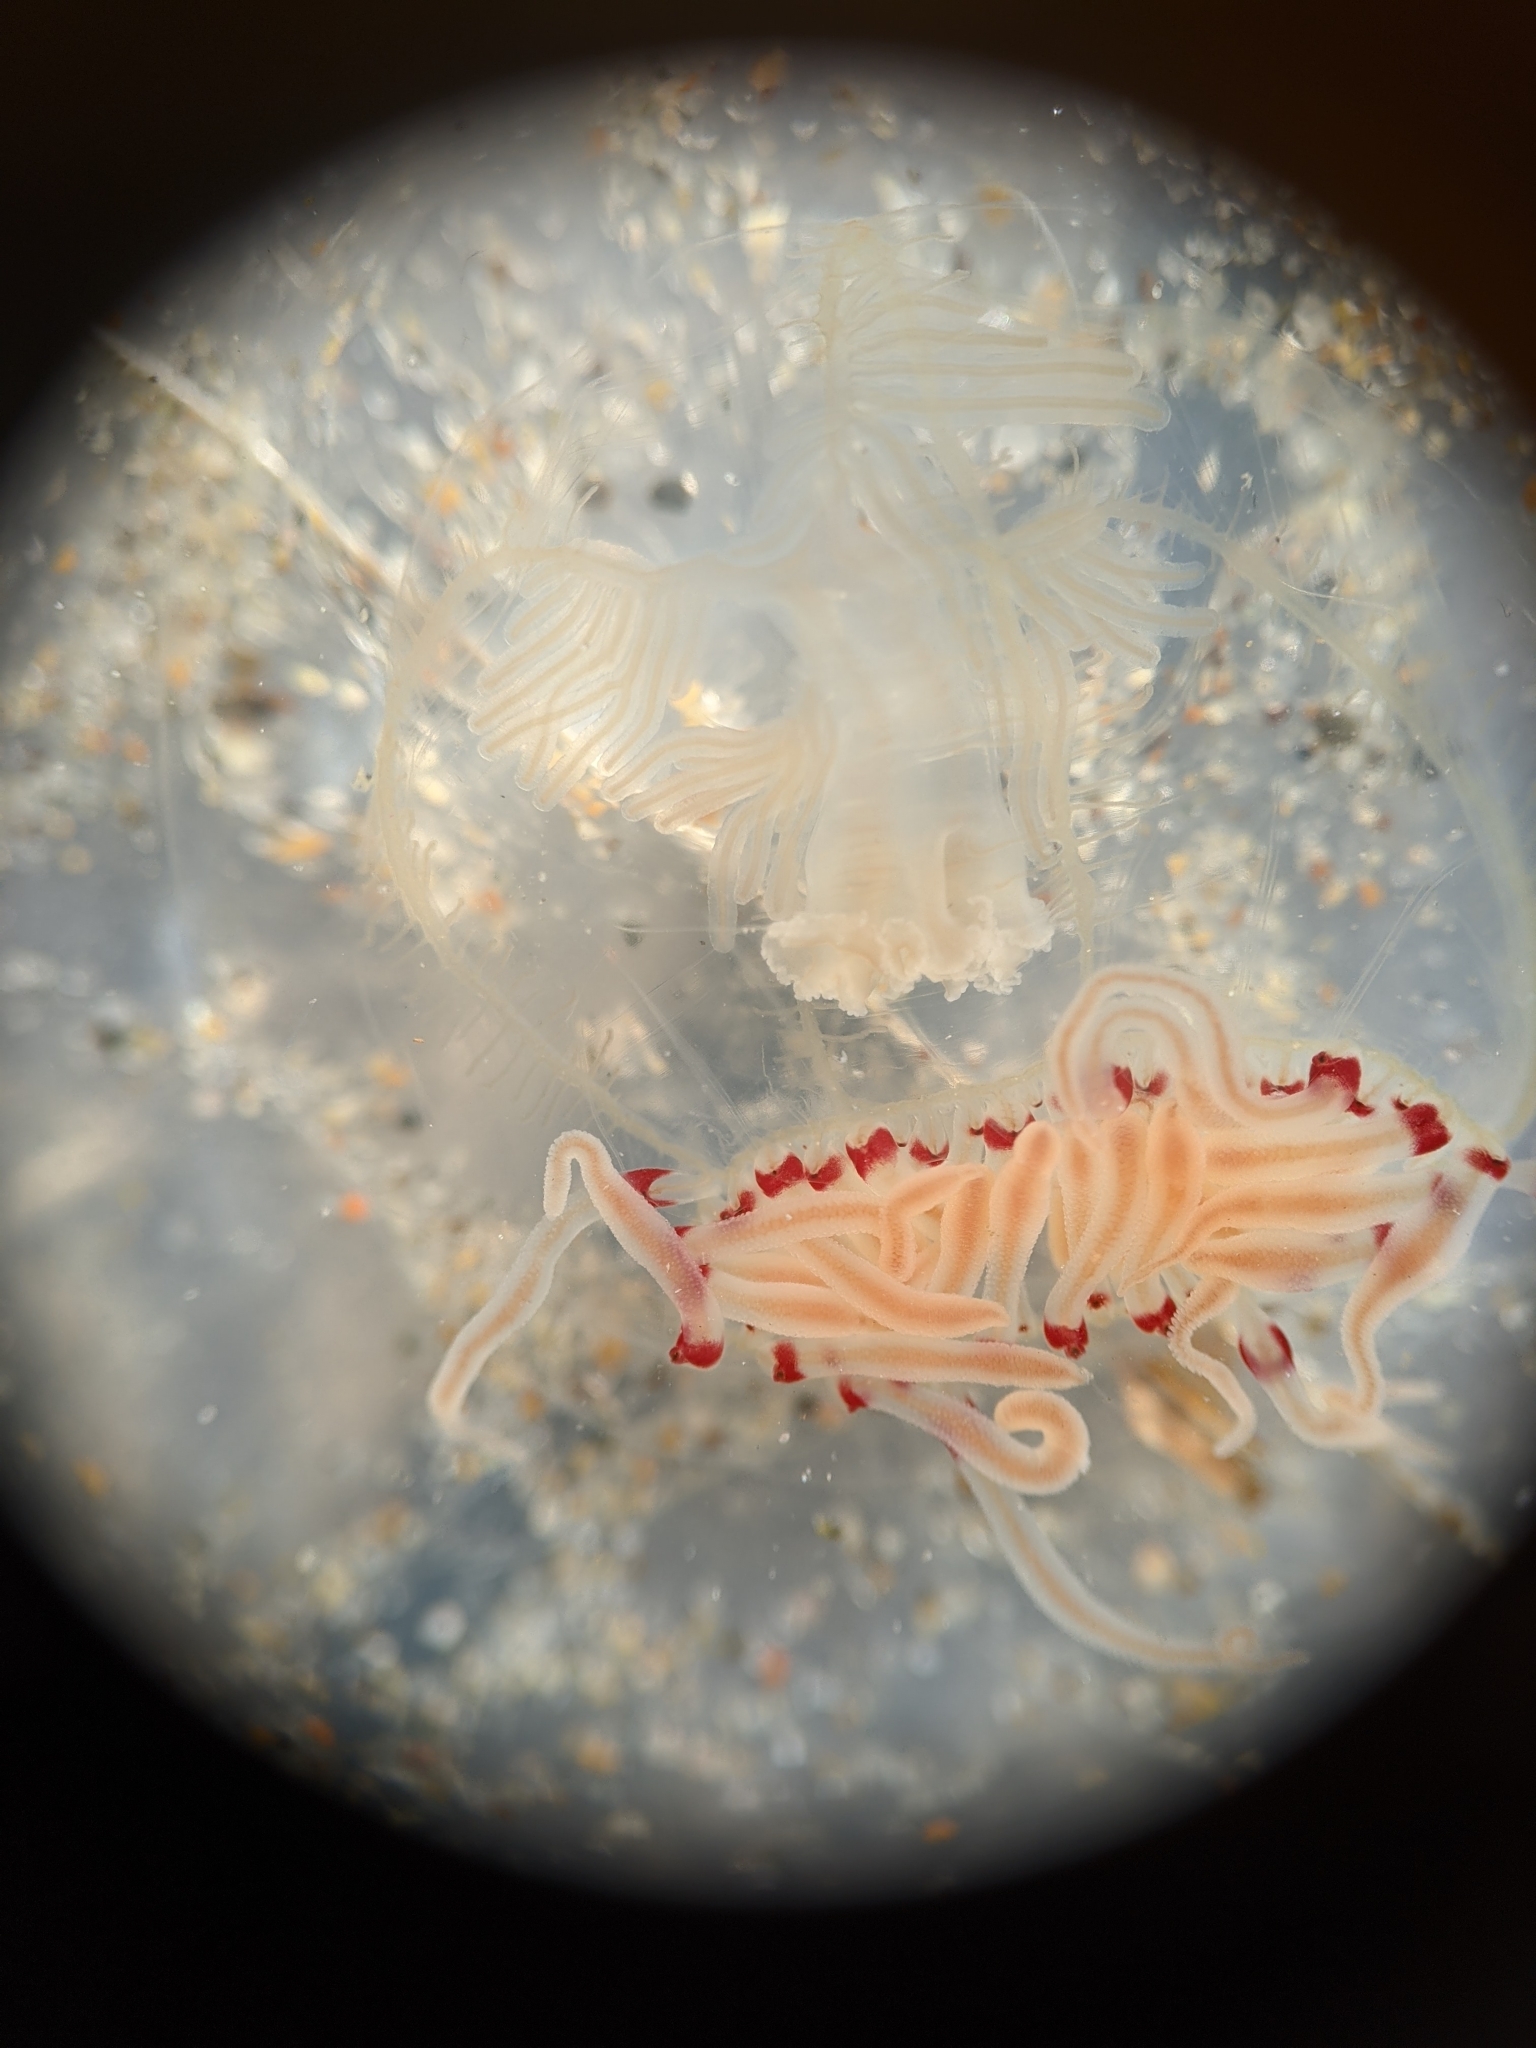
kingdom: Animalia
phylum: Cnidaria
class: Hydrozoa
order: Anthoathecata
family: Corynidae
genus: Polyorchis
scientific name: Polyorchis penicillatus
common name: Penicillate jellyfish
